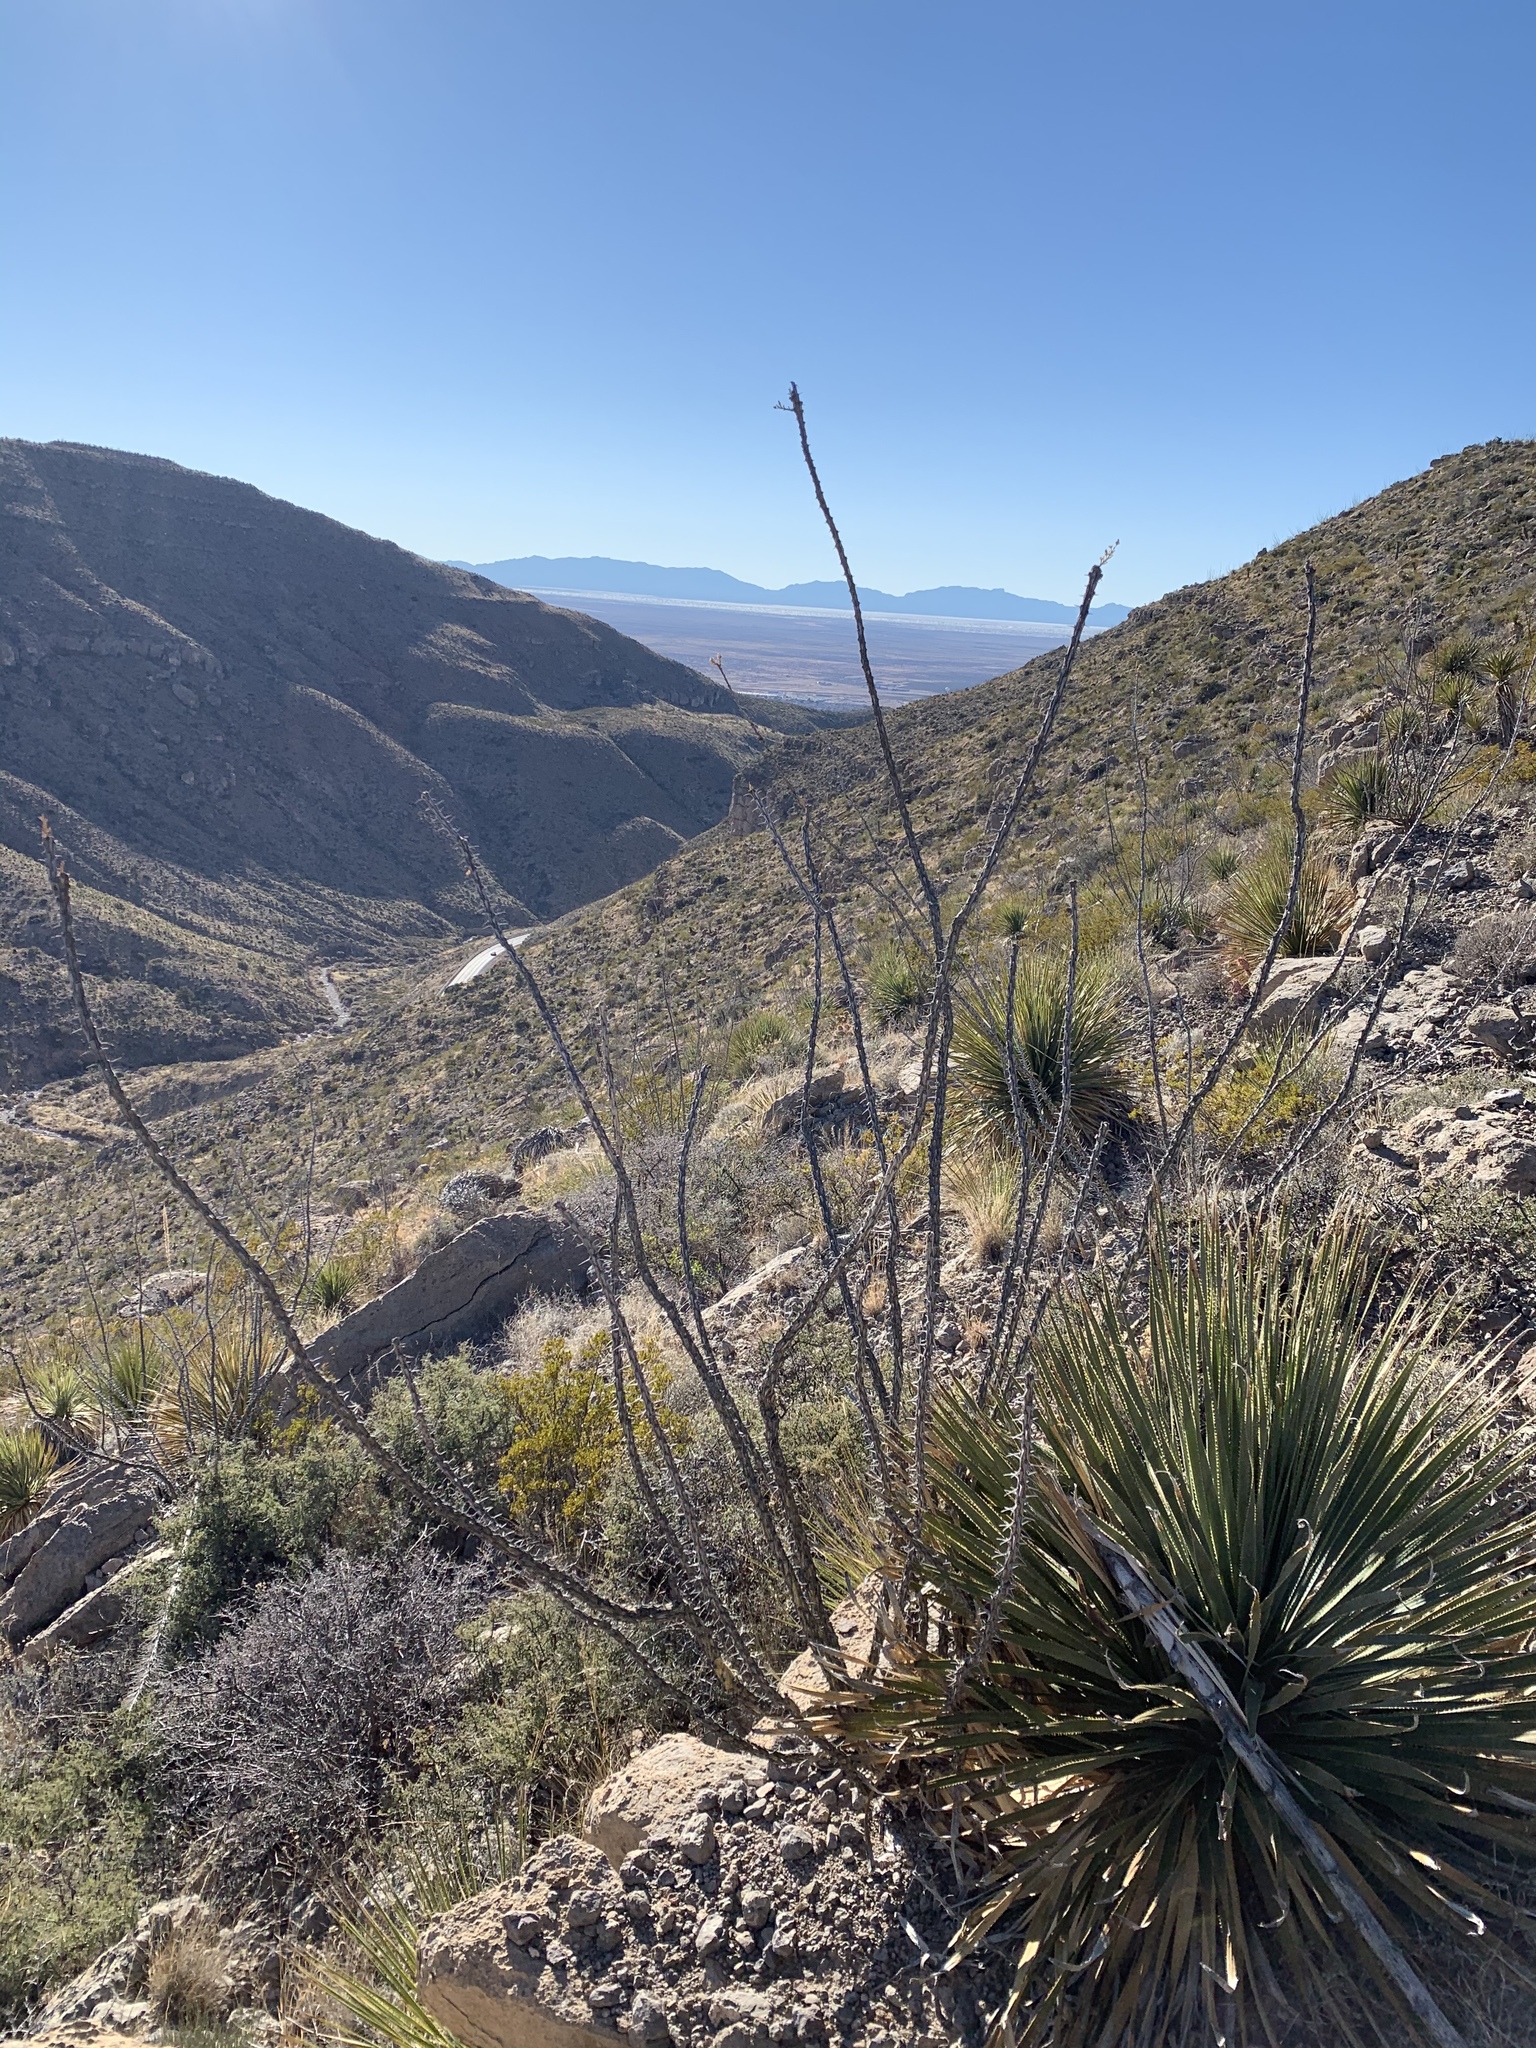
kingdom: Plantae
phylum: Tracheophyta
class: Magnoliopsida
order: Ericales
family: Fouquieriaceae
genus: Fouquieria
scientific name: Fouquieria splendens
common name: Vine-cactus
